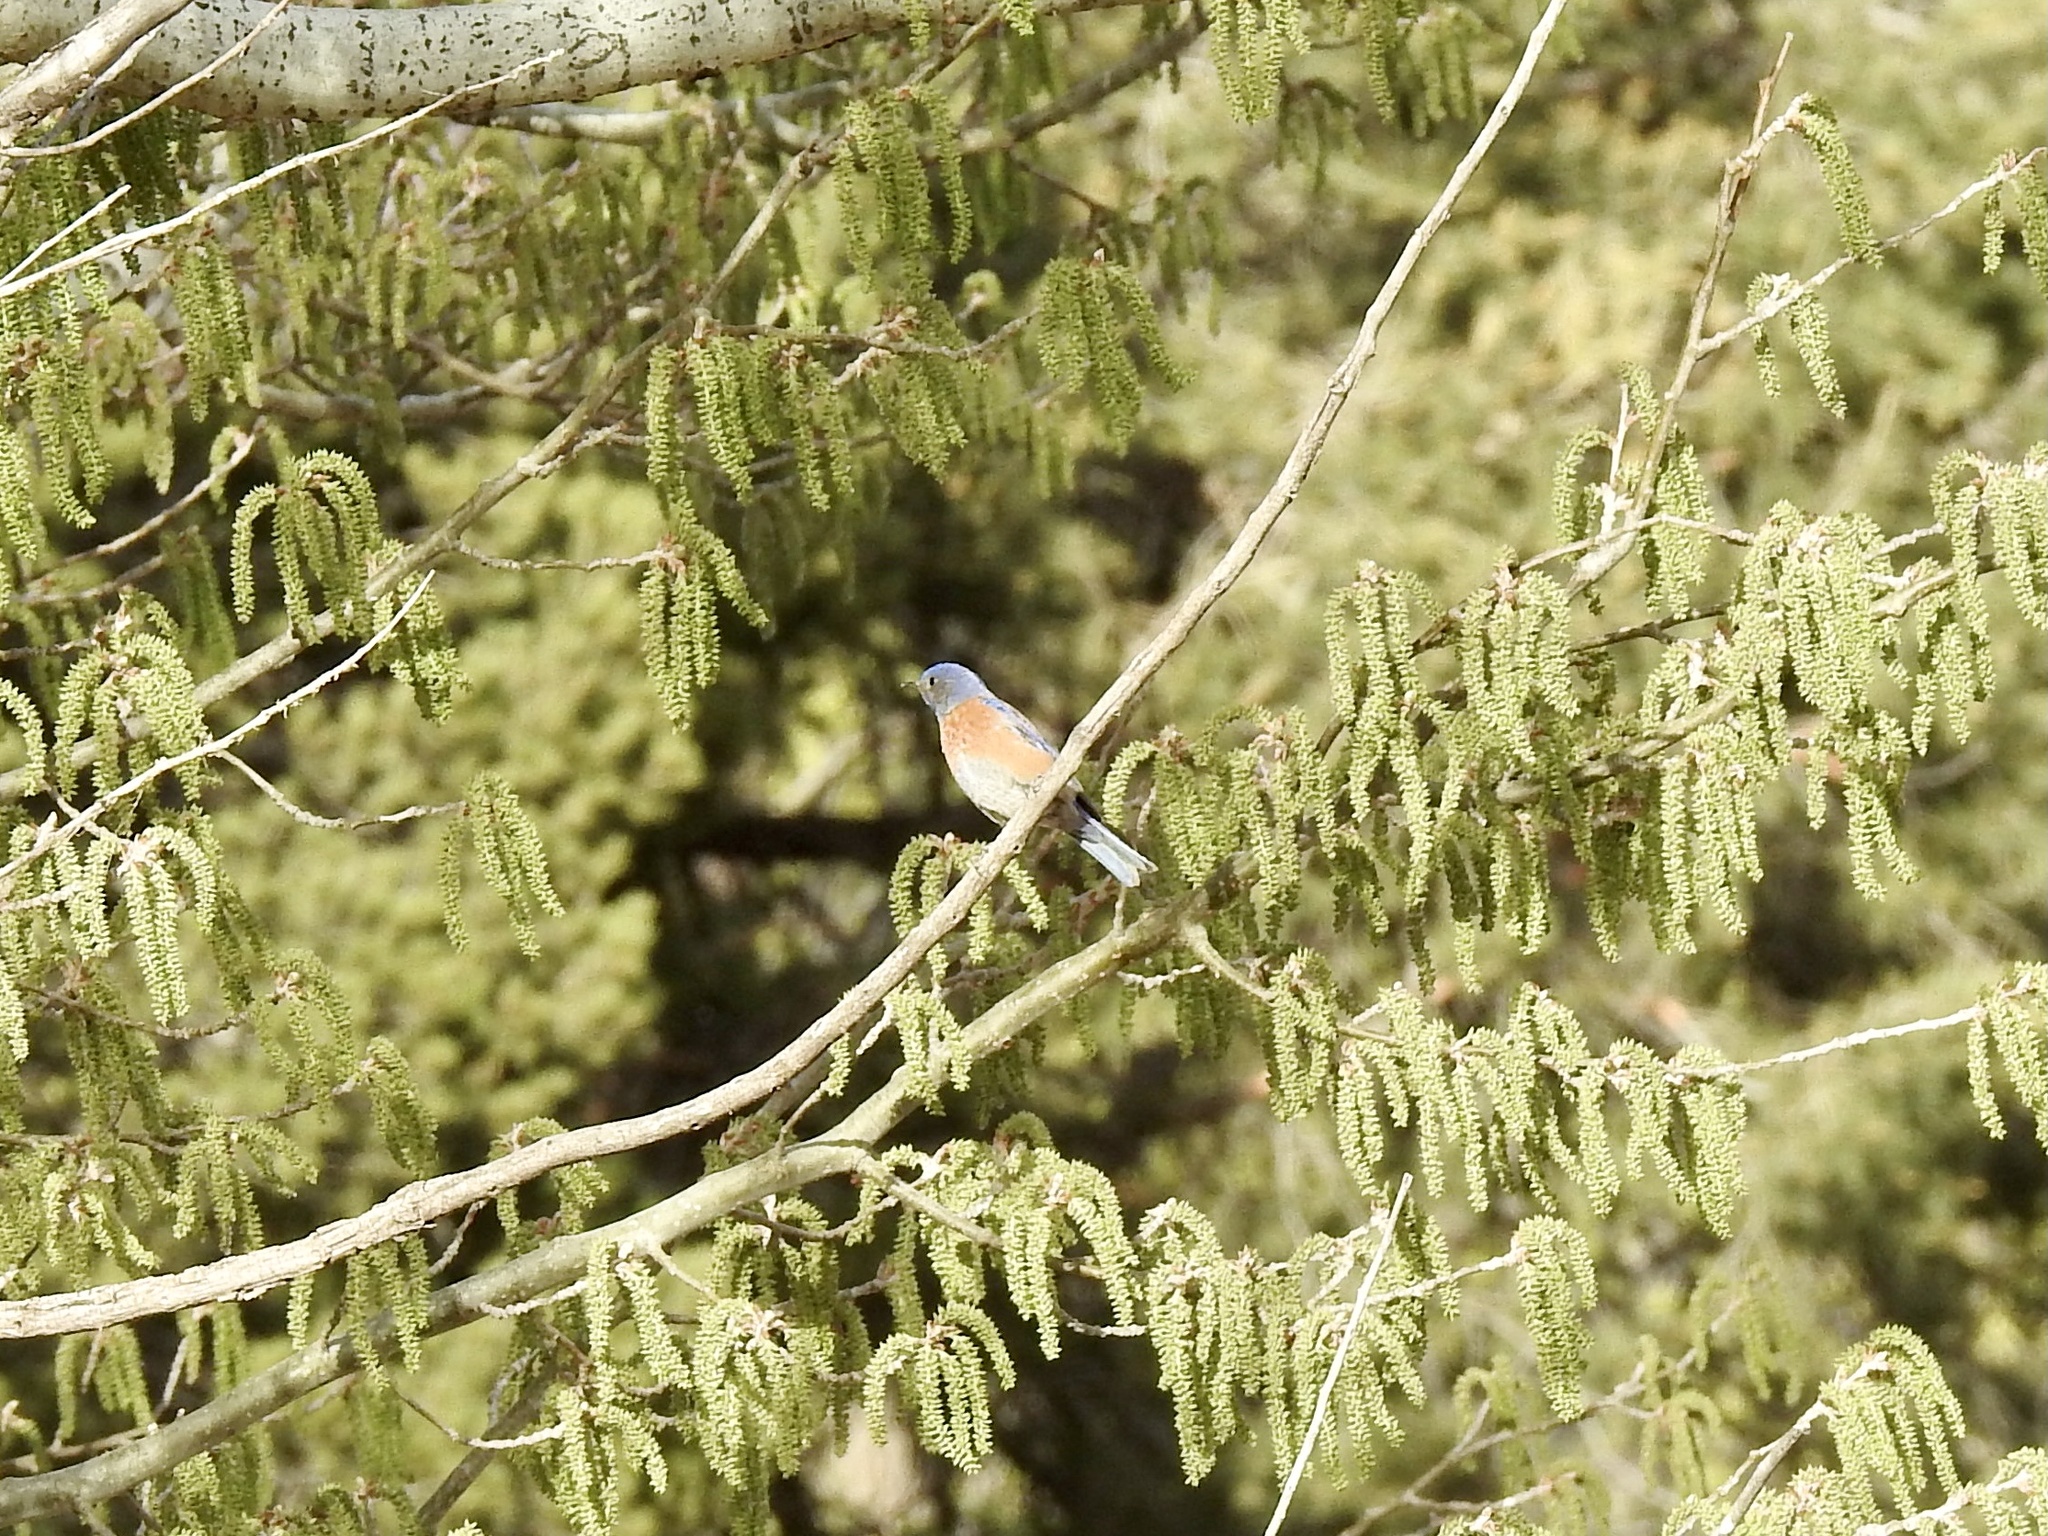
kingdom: Animalia
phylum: Chordata
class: Aves
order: Passeriformes
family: Turdidae
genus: Sialia
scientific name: Sialia mexicana
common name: Western bluebird
